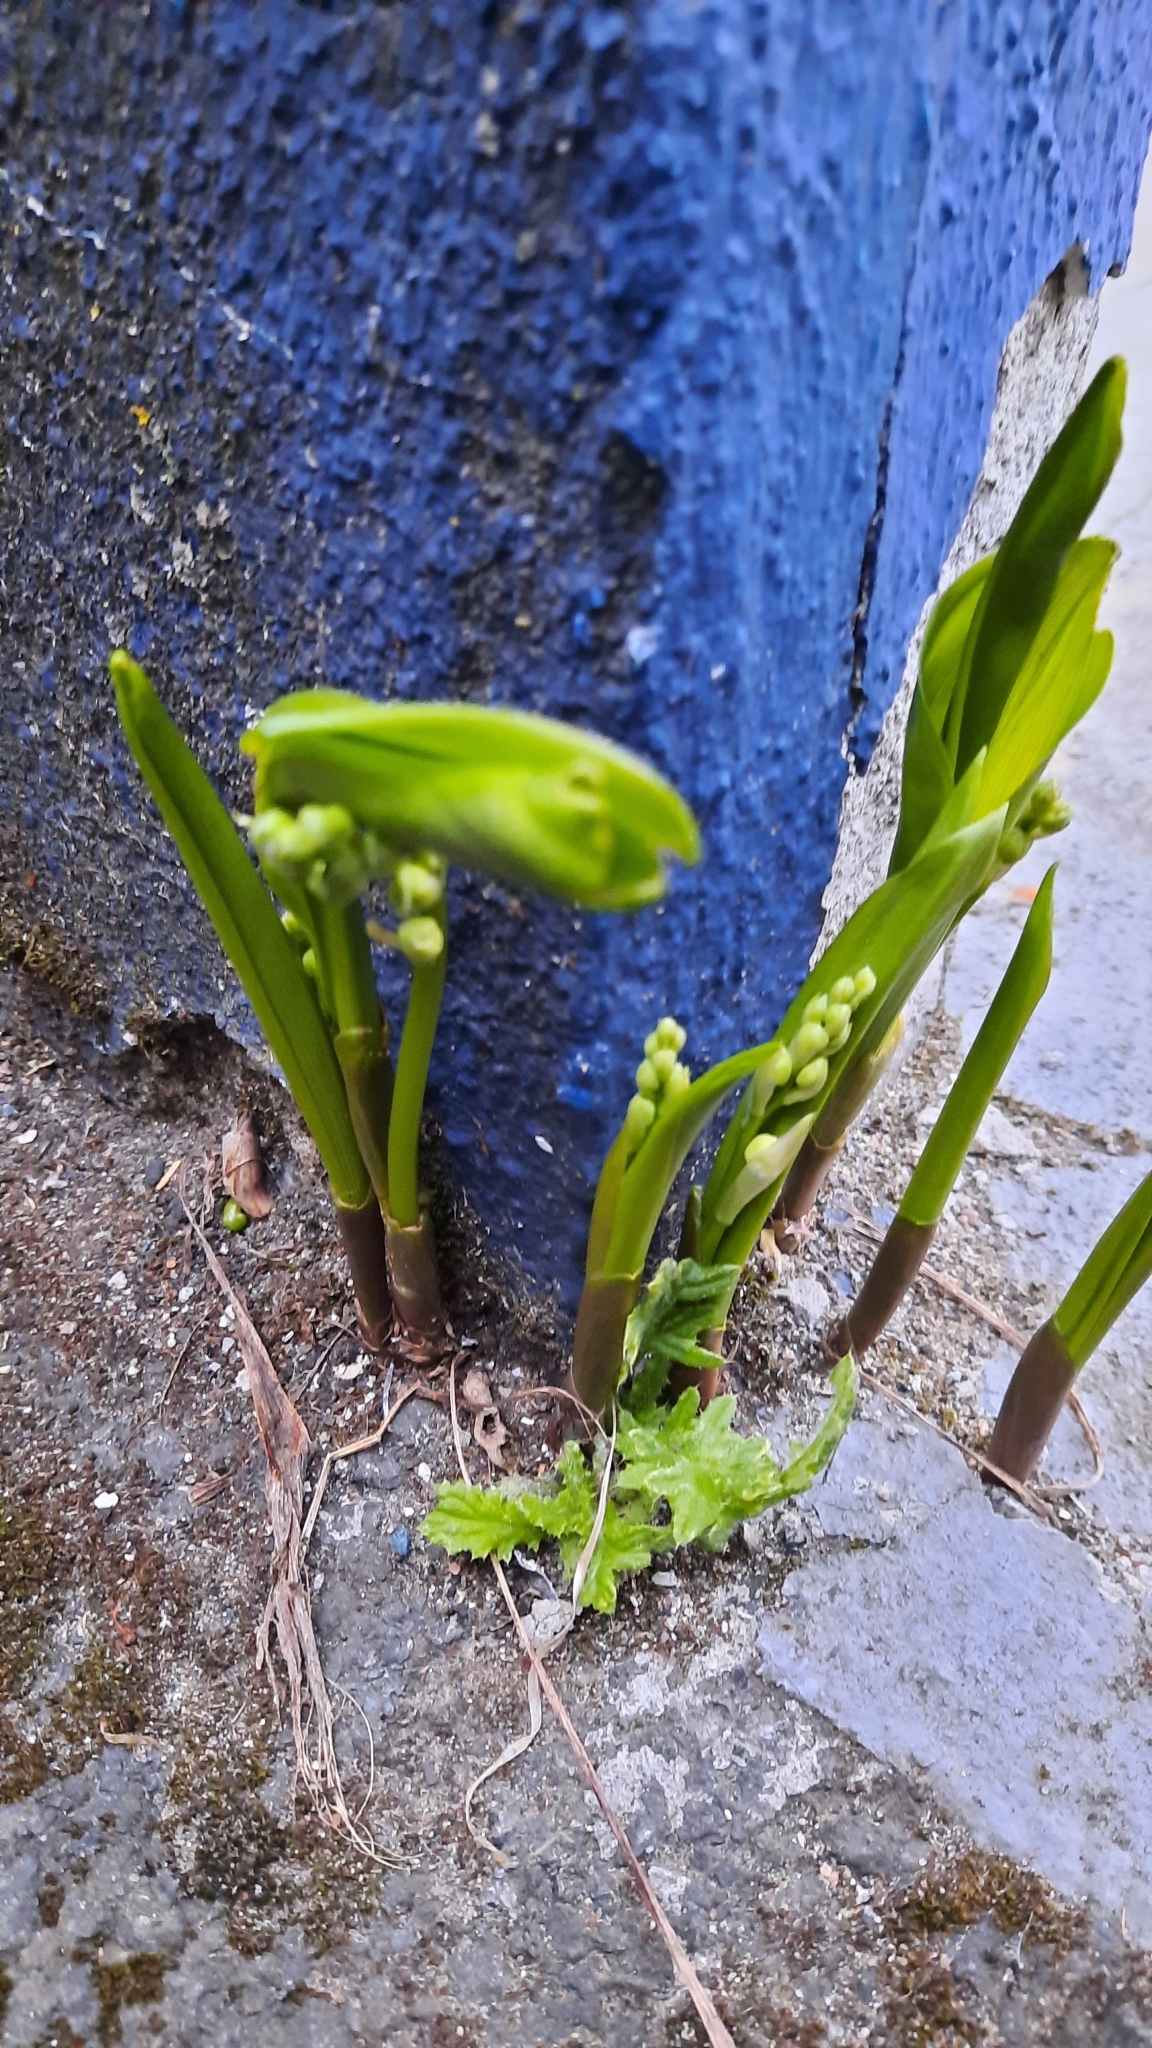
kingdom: Plantae
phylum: Tracheophyta
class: Liliopsida
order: Asparagales
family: Asparagaceae
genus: Convallaria
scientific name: Convallaria majalis
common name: Lily-of-the-valley
